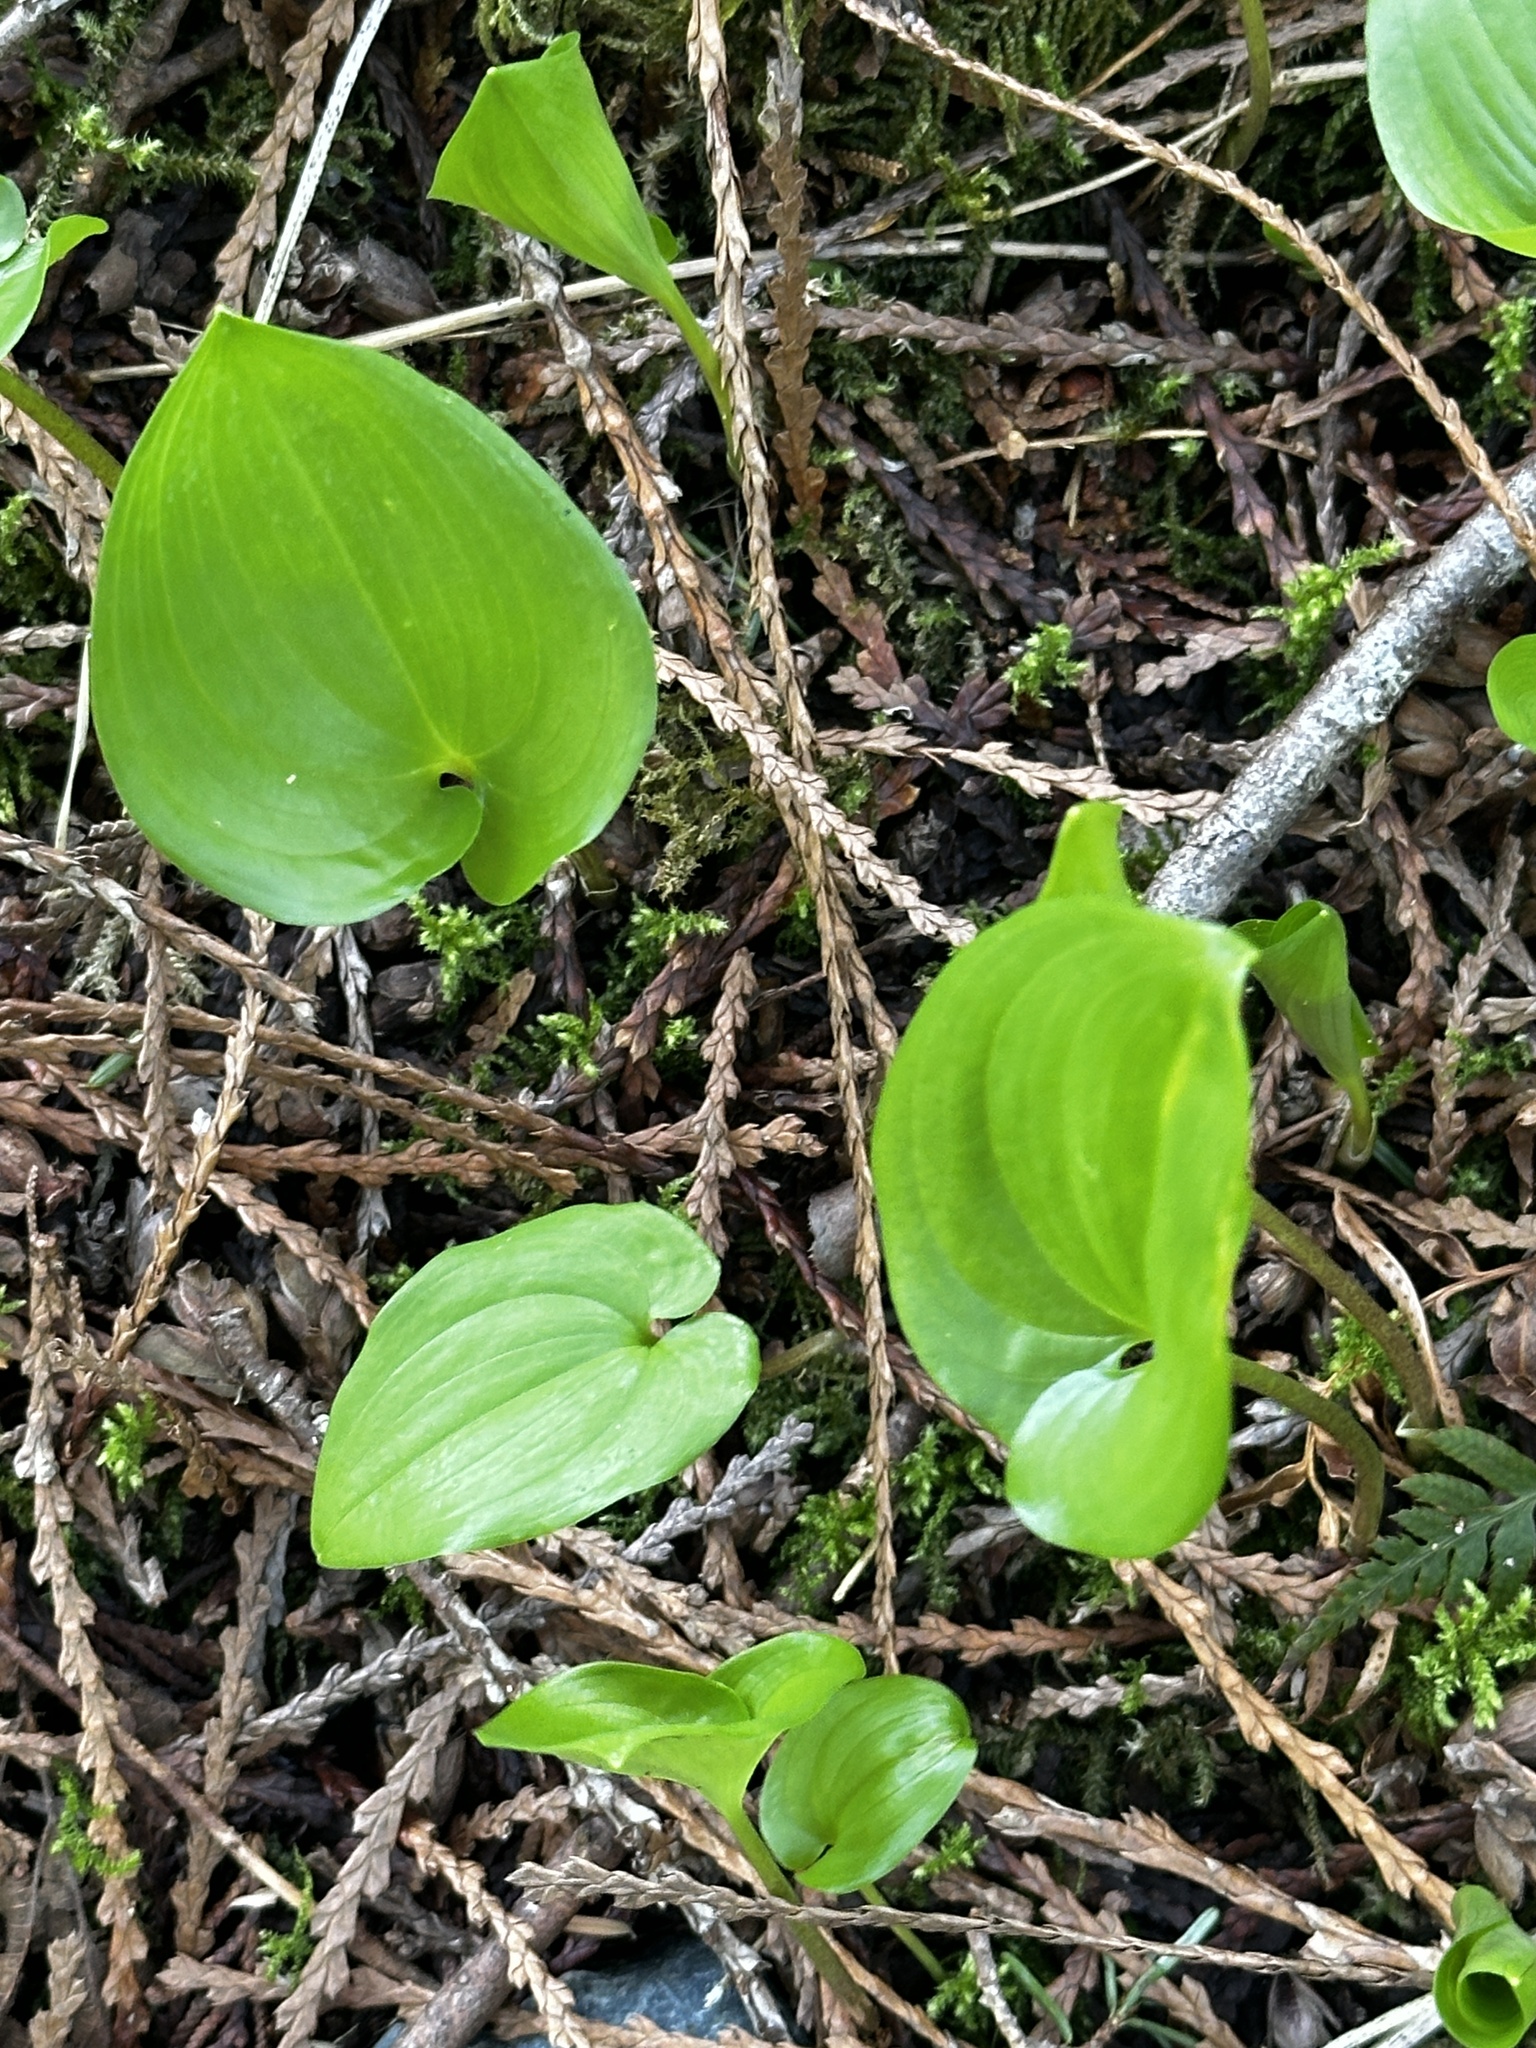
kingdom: Plantae
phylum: Tracheophyta
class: Liliopsida
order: Asparagales
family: Asparagaceae
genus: Maianthemum
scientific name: Maianthemum dilatatum
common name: False lily-of-the-valley
